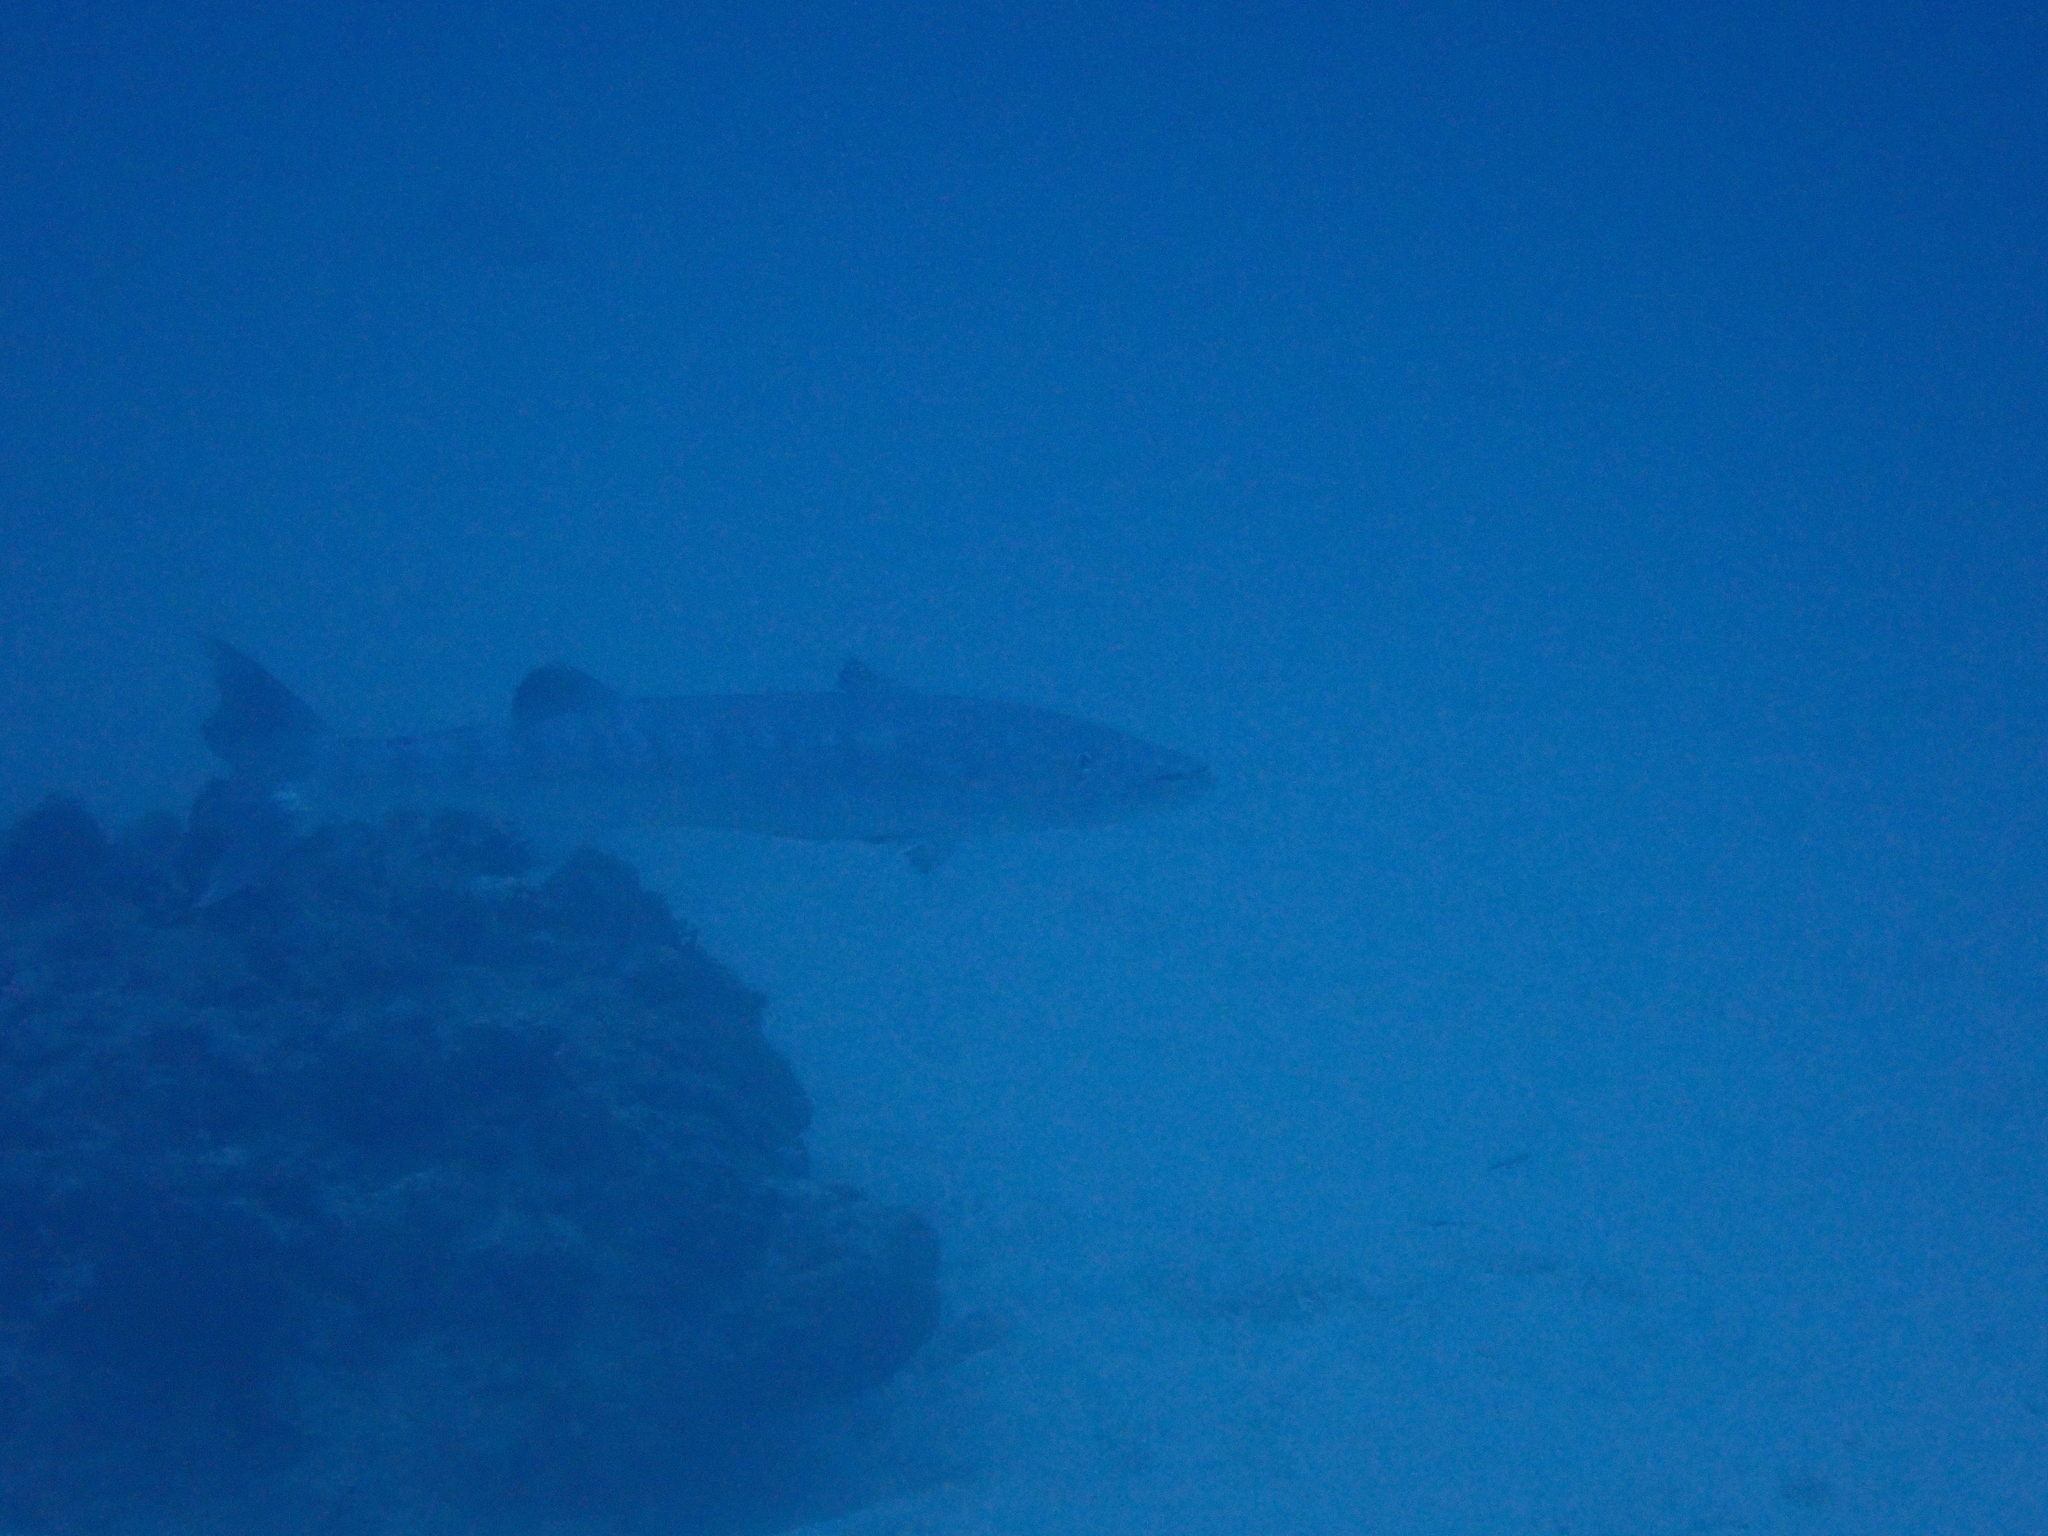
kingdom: Animalia
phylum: Chordata
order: Perciformes
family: Sphyraenidae
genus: Sphyraena
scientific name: Sphyraena barracuda
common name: Great barracuda
